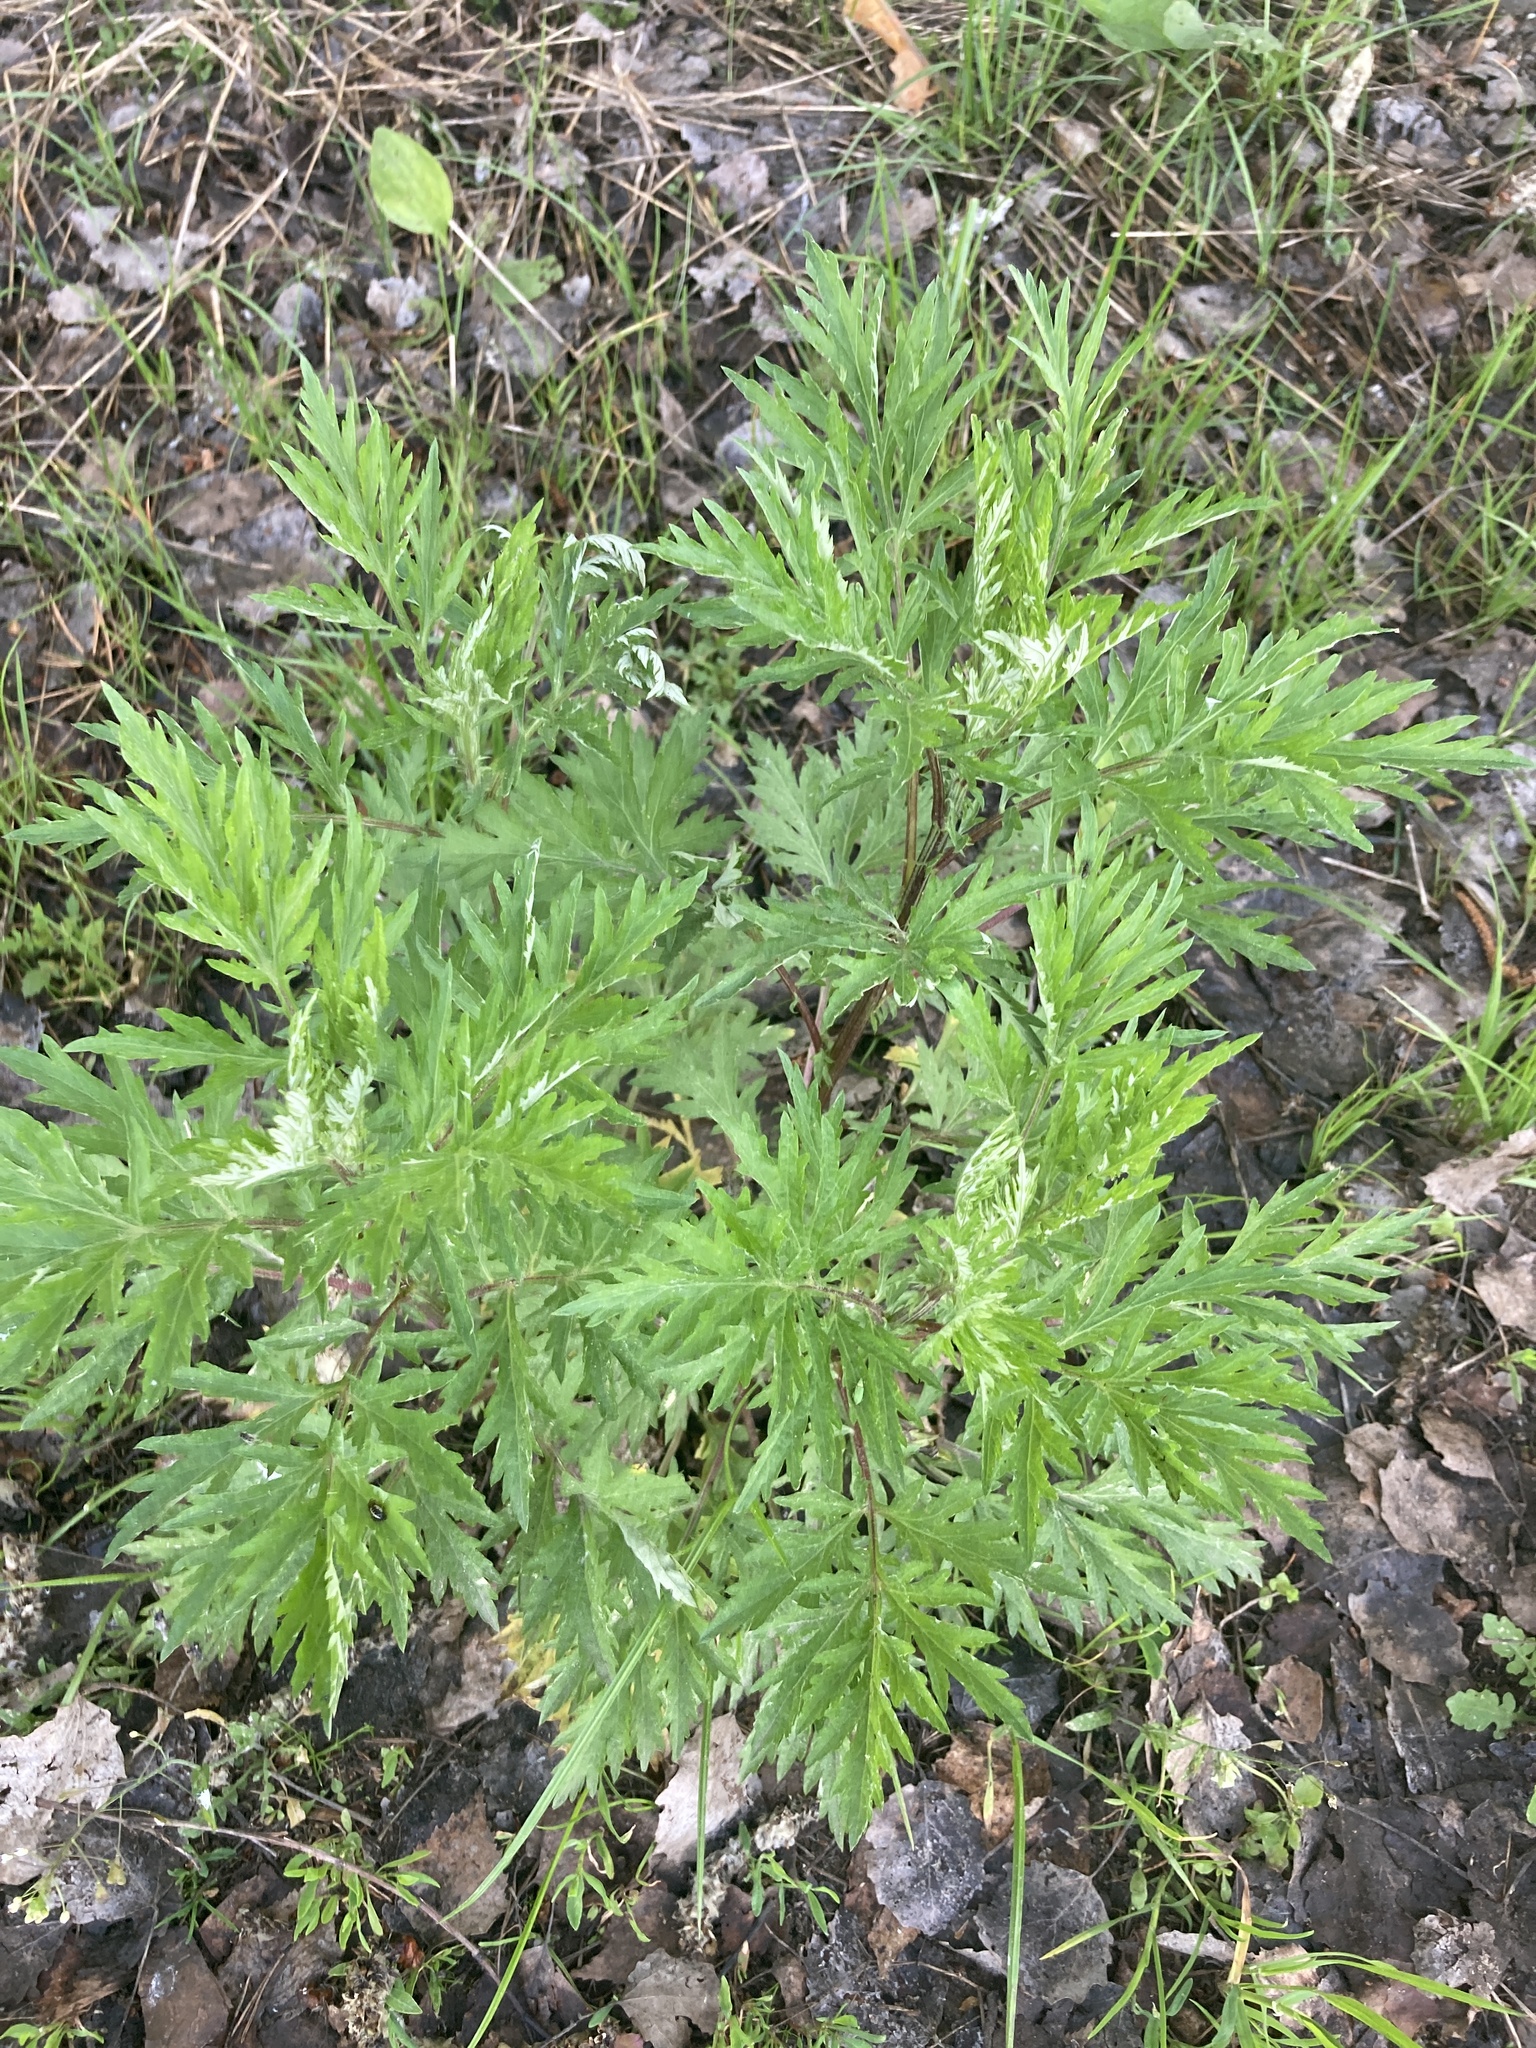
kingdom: Plantae
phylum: Tracheophyta
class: Magnoliopsida
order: Asterales
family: Asteraceae
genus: Artemisia
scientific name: Artemisia vulgaris
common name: Mugwort
